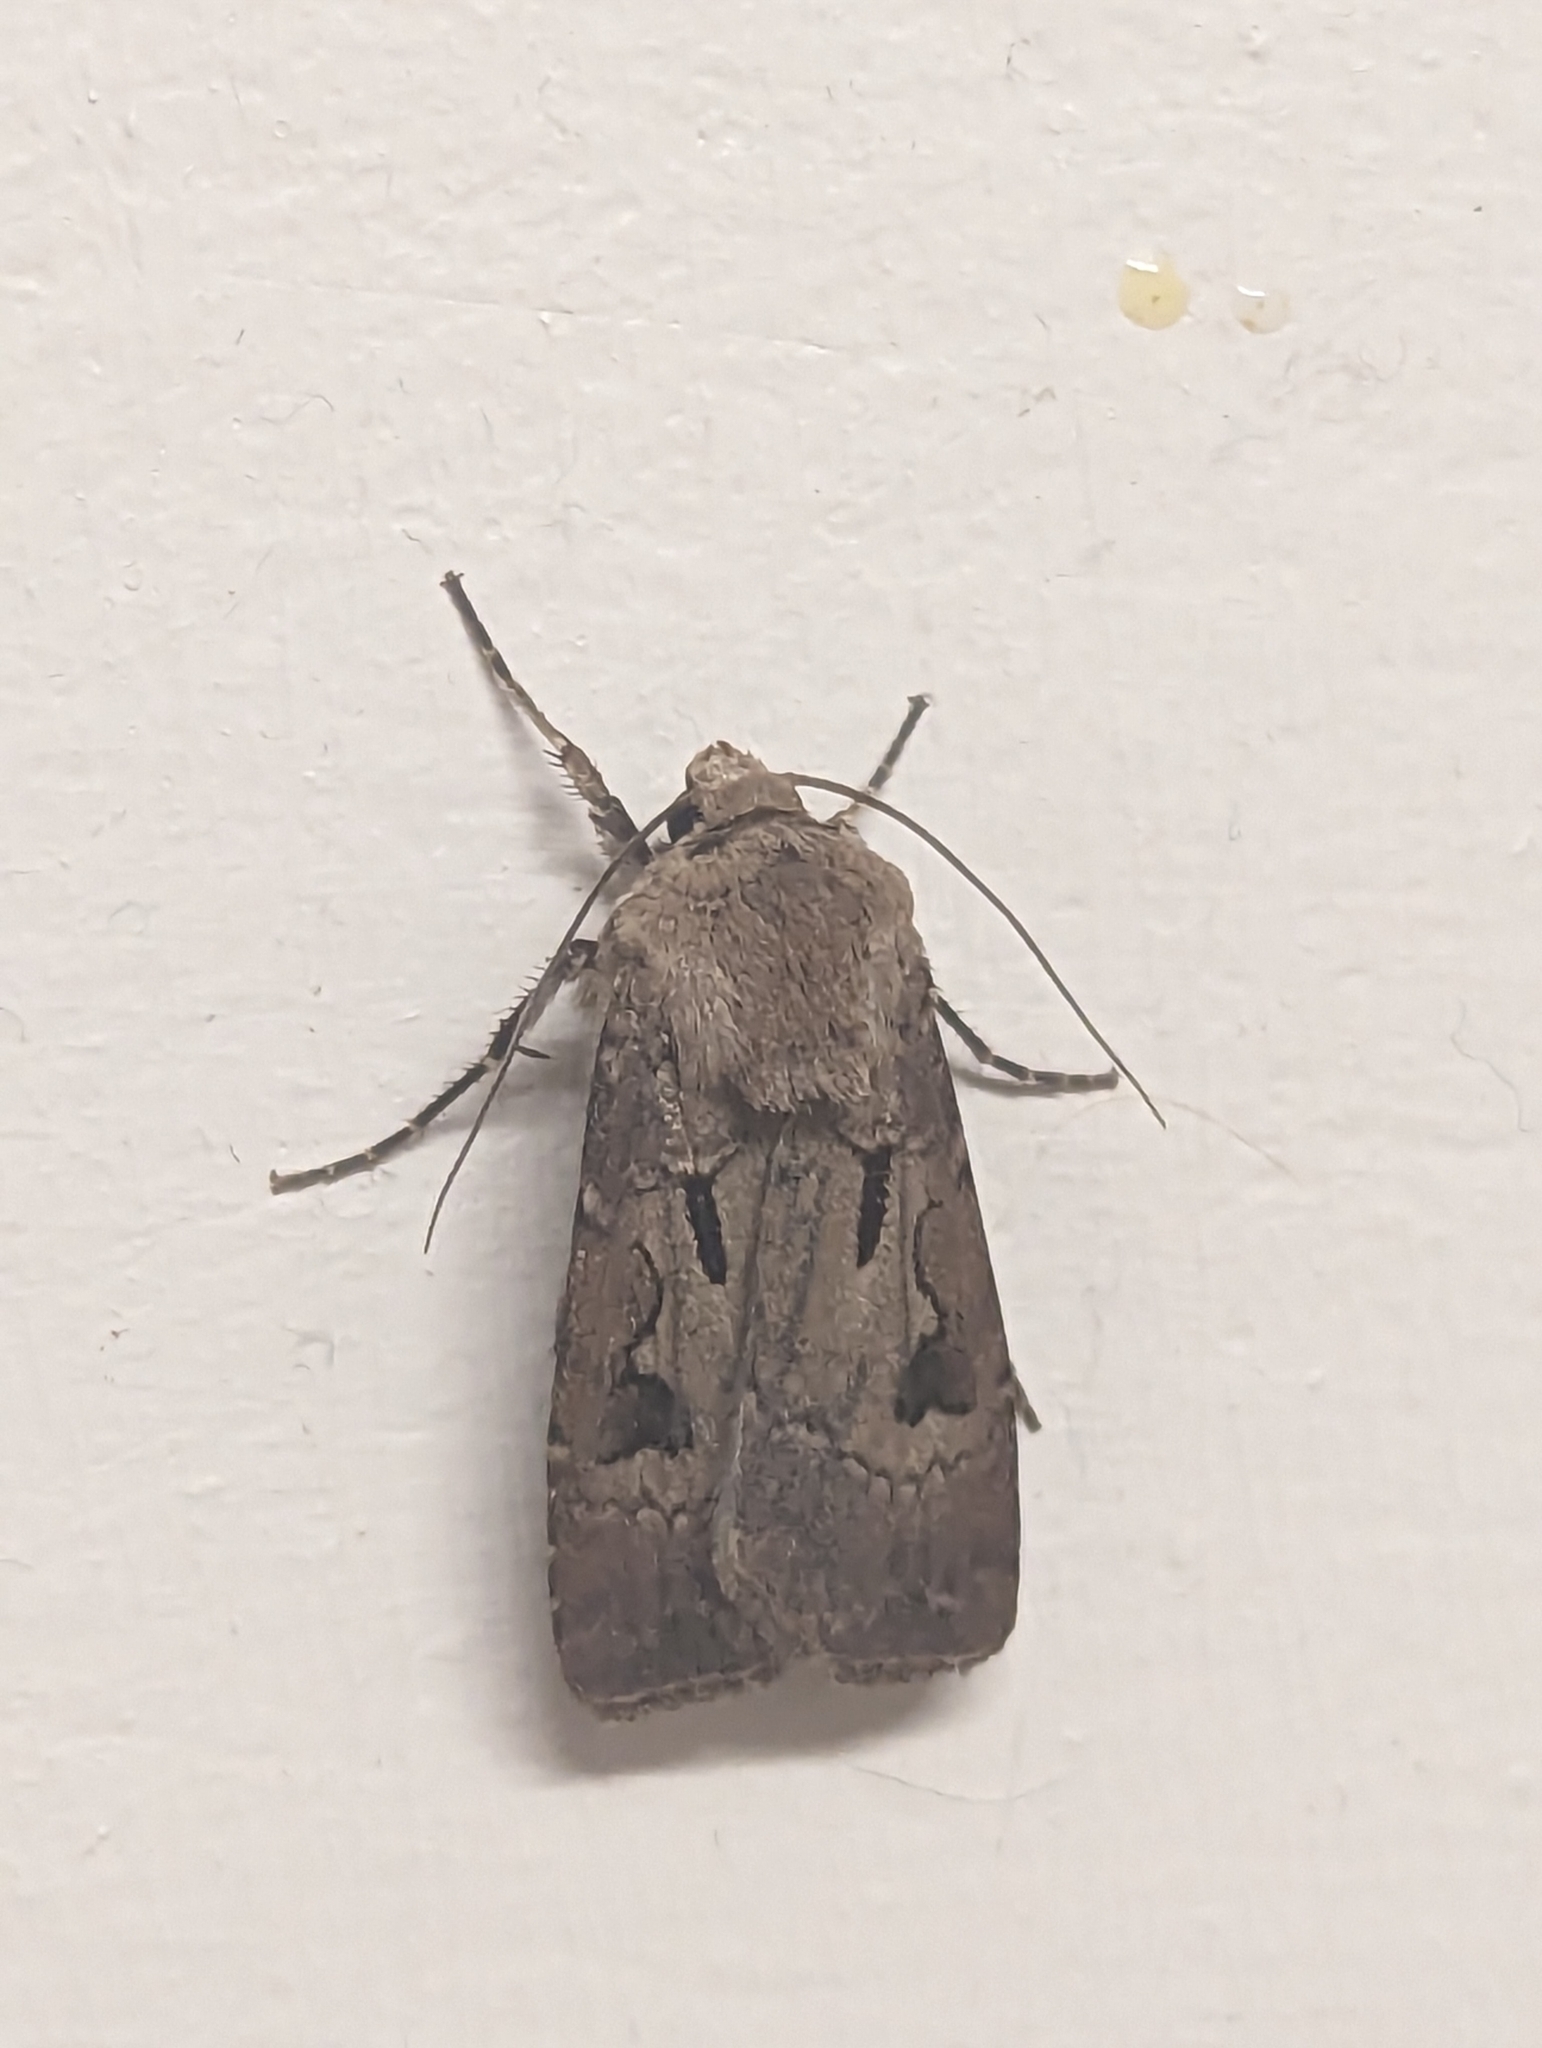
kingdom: Animalia
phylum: Arthropoda
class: Insecta
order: Lepidoptera
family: Noctuidae
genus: Agrotis
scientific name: Agrotis exclamationis
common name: Heart and dart
